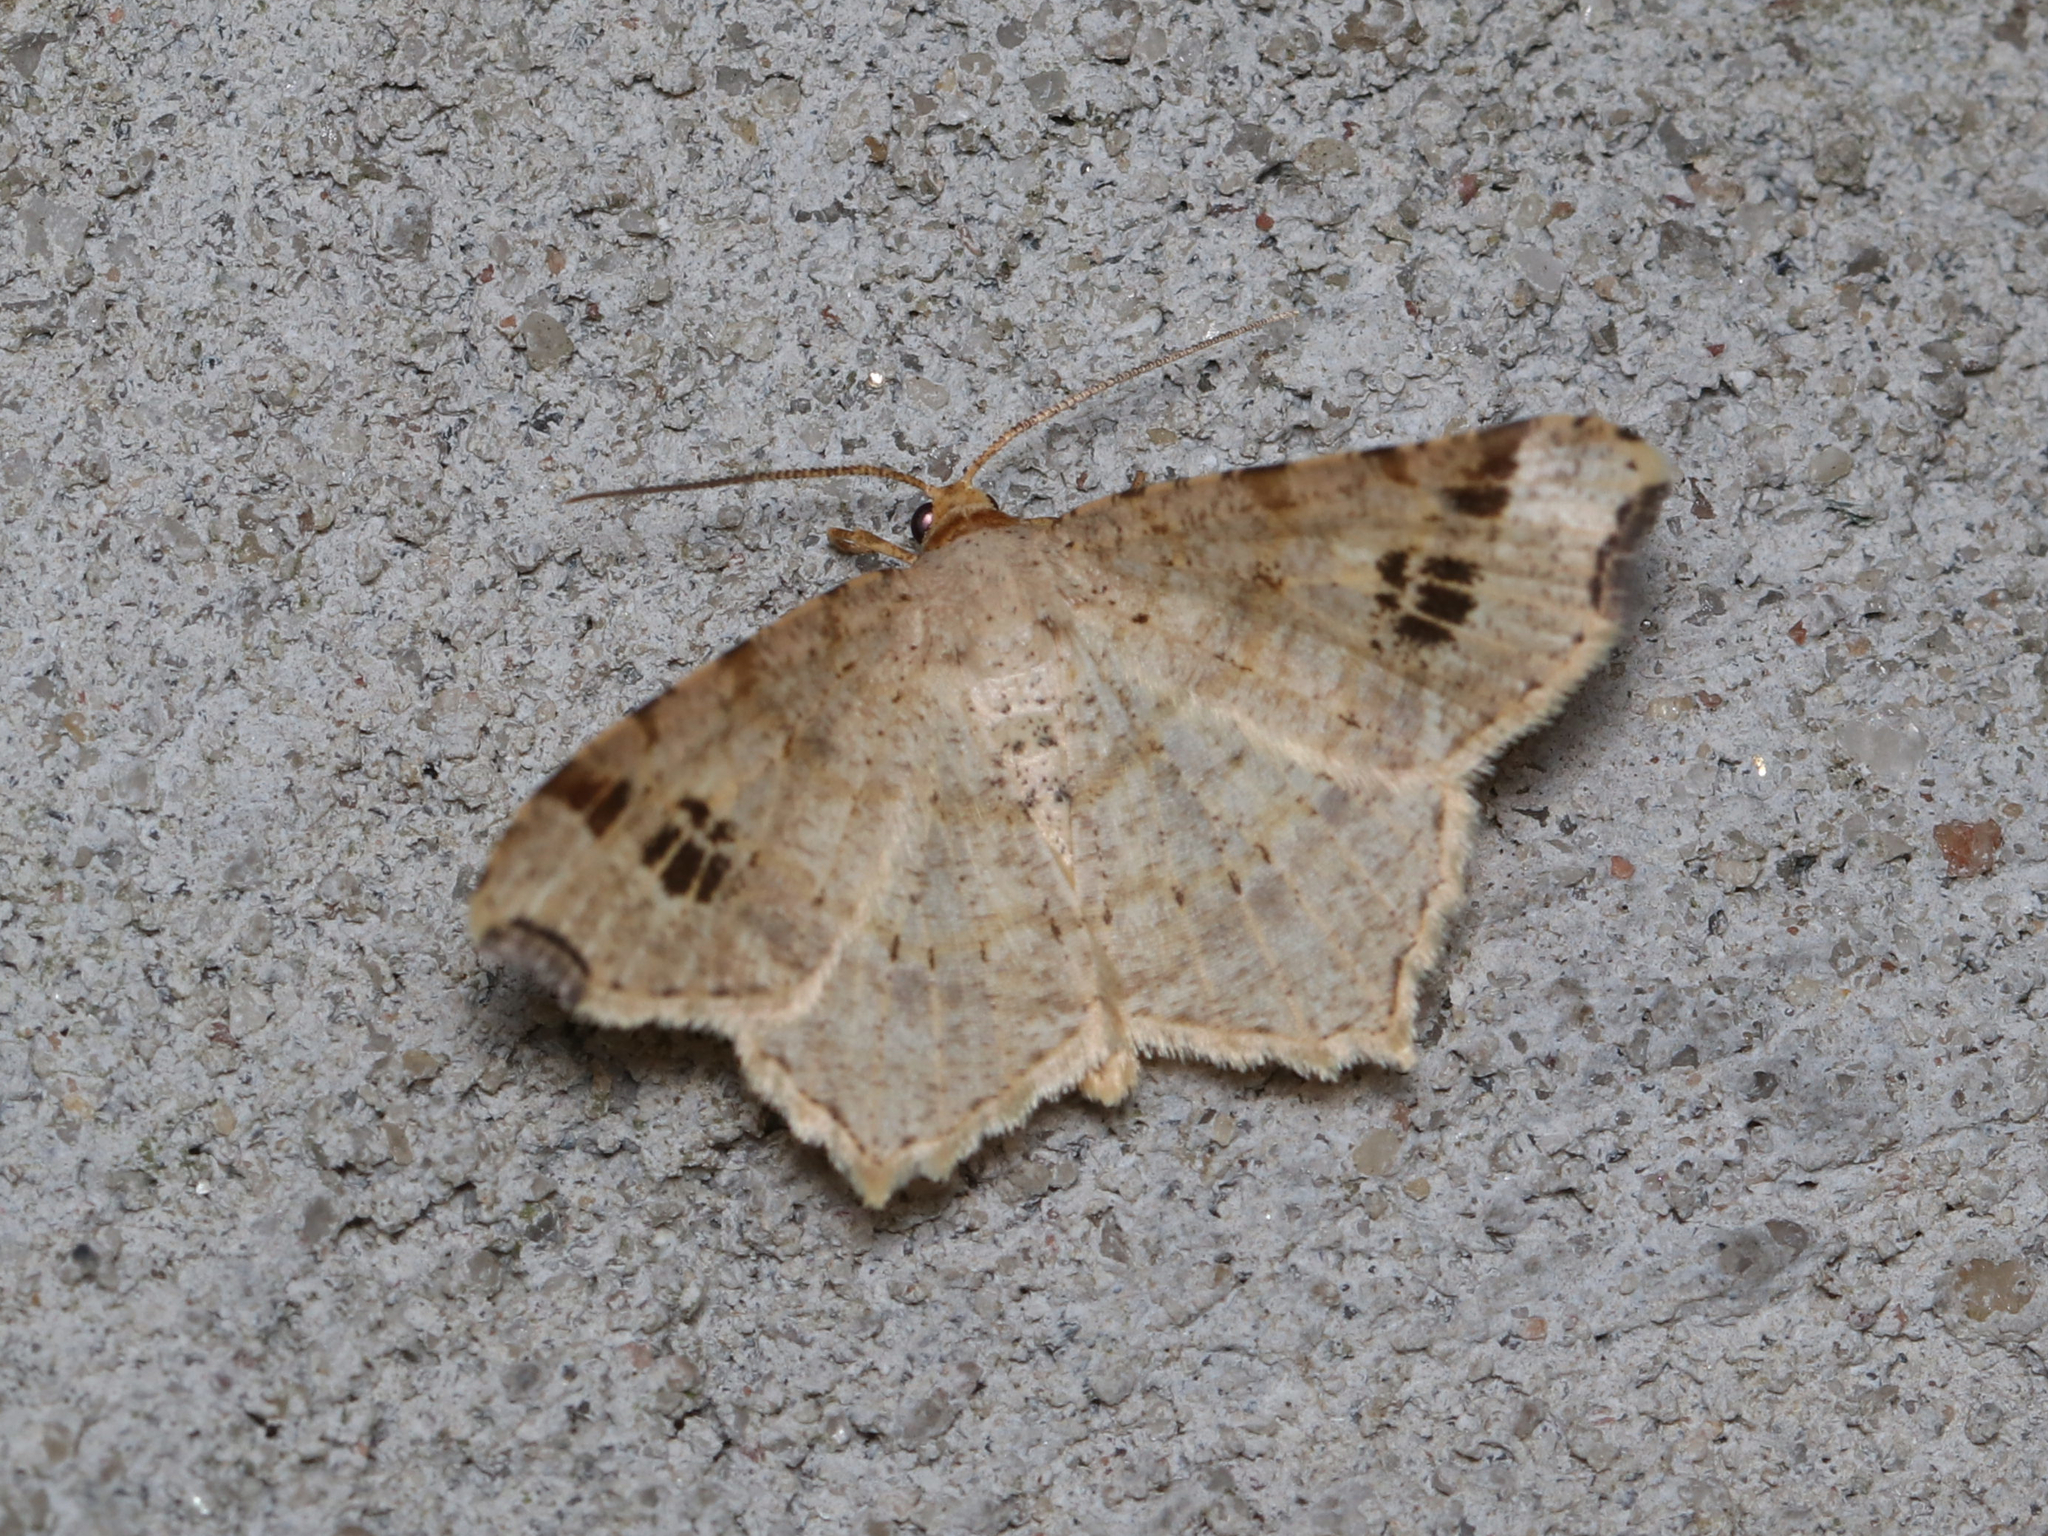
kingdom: Animalia
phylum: Arthropoda
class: Insecta
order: Lepidoptera
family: Geometridae
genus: Macaria
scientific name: Macaria aemulataria
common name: Common angle
